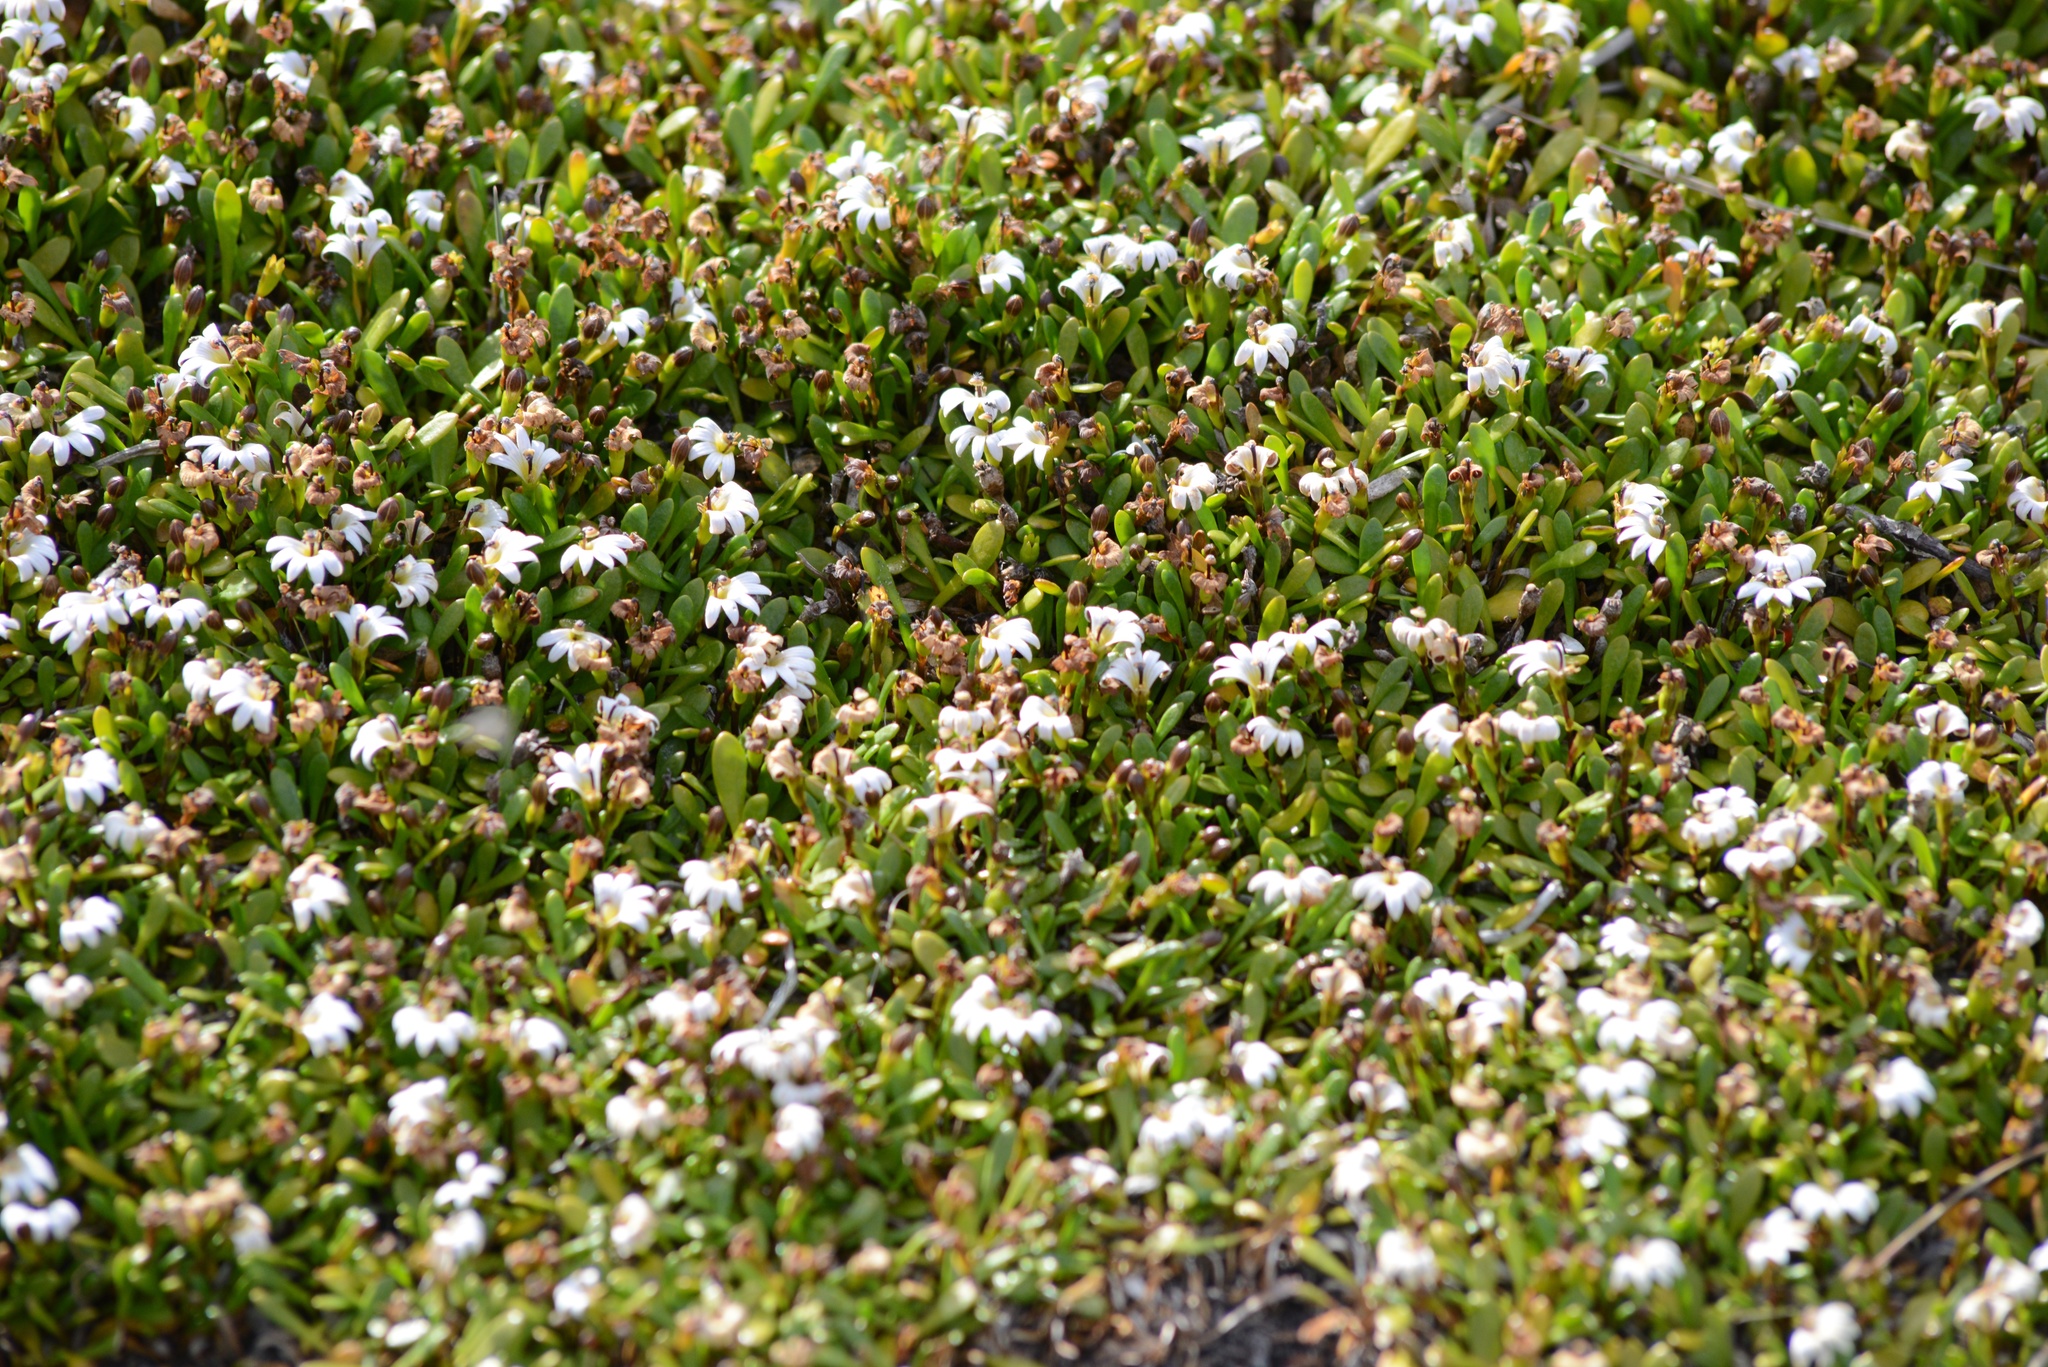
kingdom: Plantae
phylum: Tracheophyta
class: Magnoliopsida
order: Asterales
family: Goodeniaceae
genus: Goodenia
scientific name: Goodenia radicans
